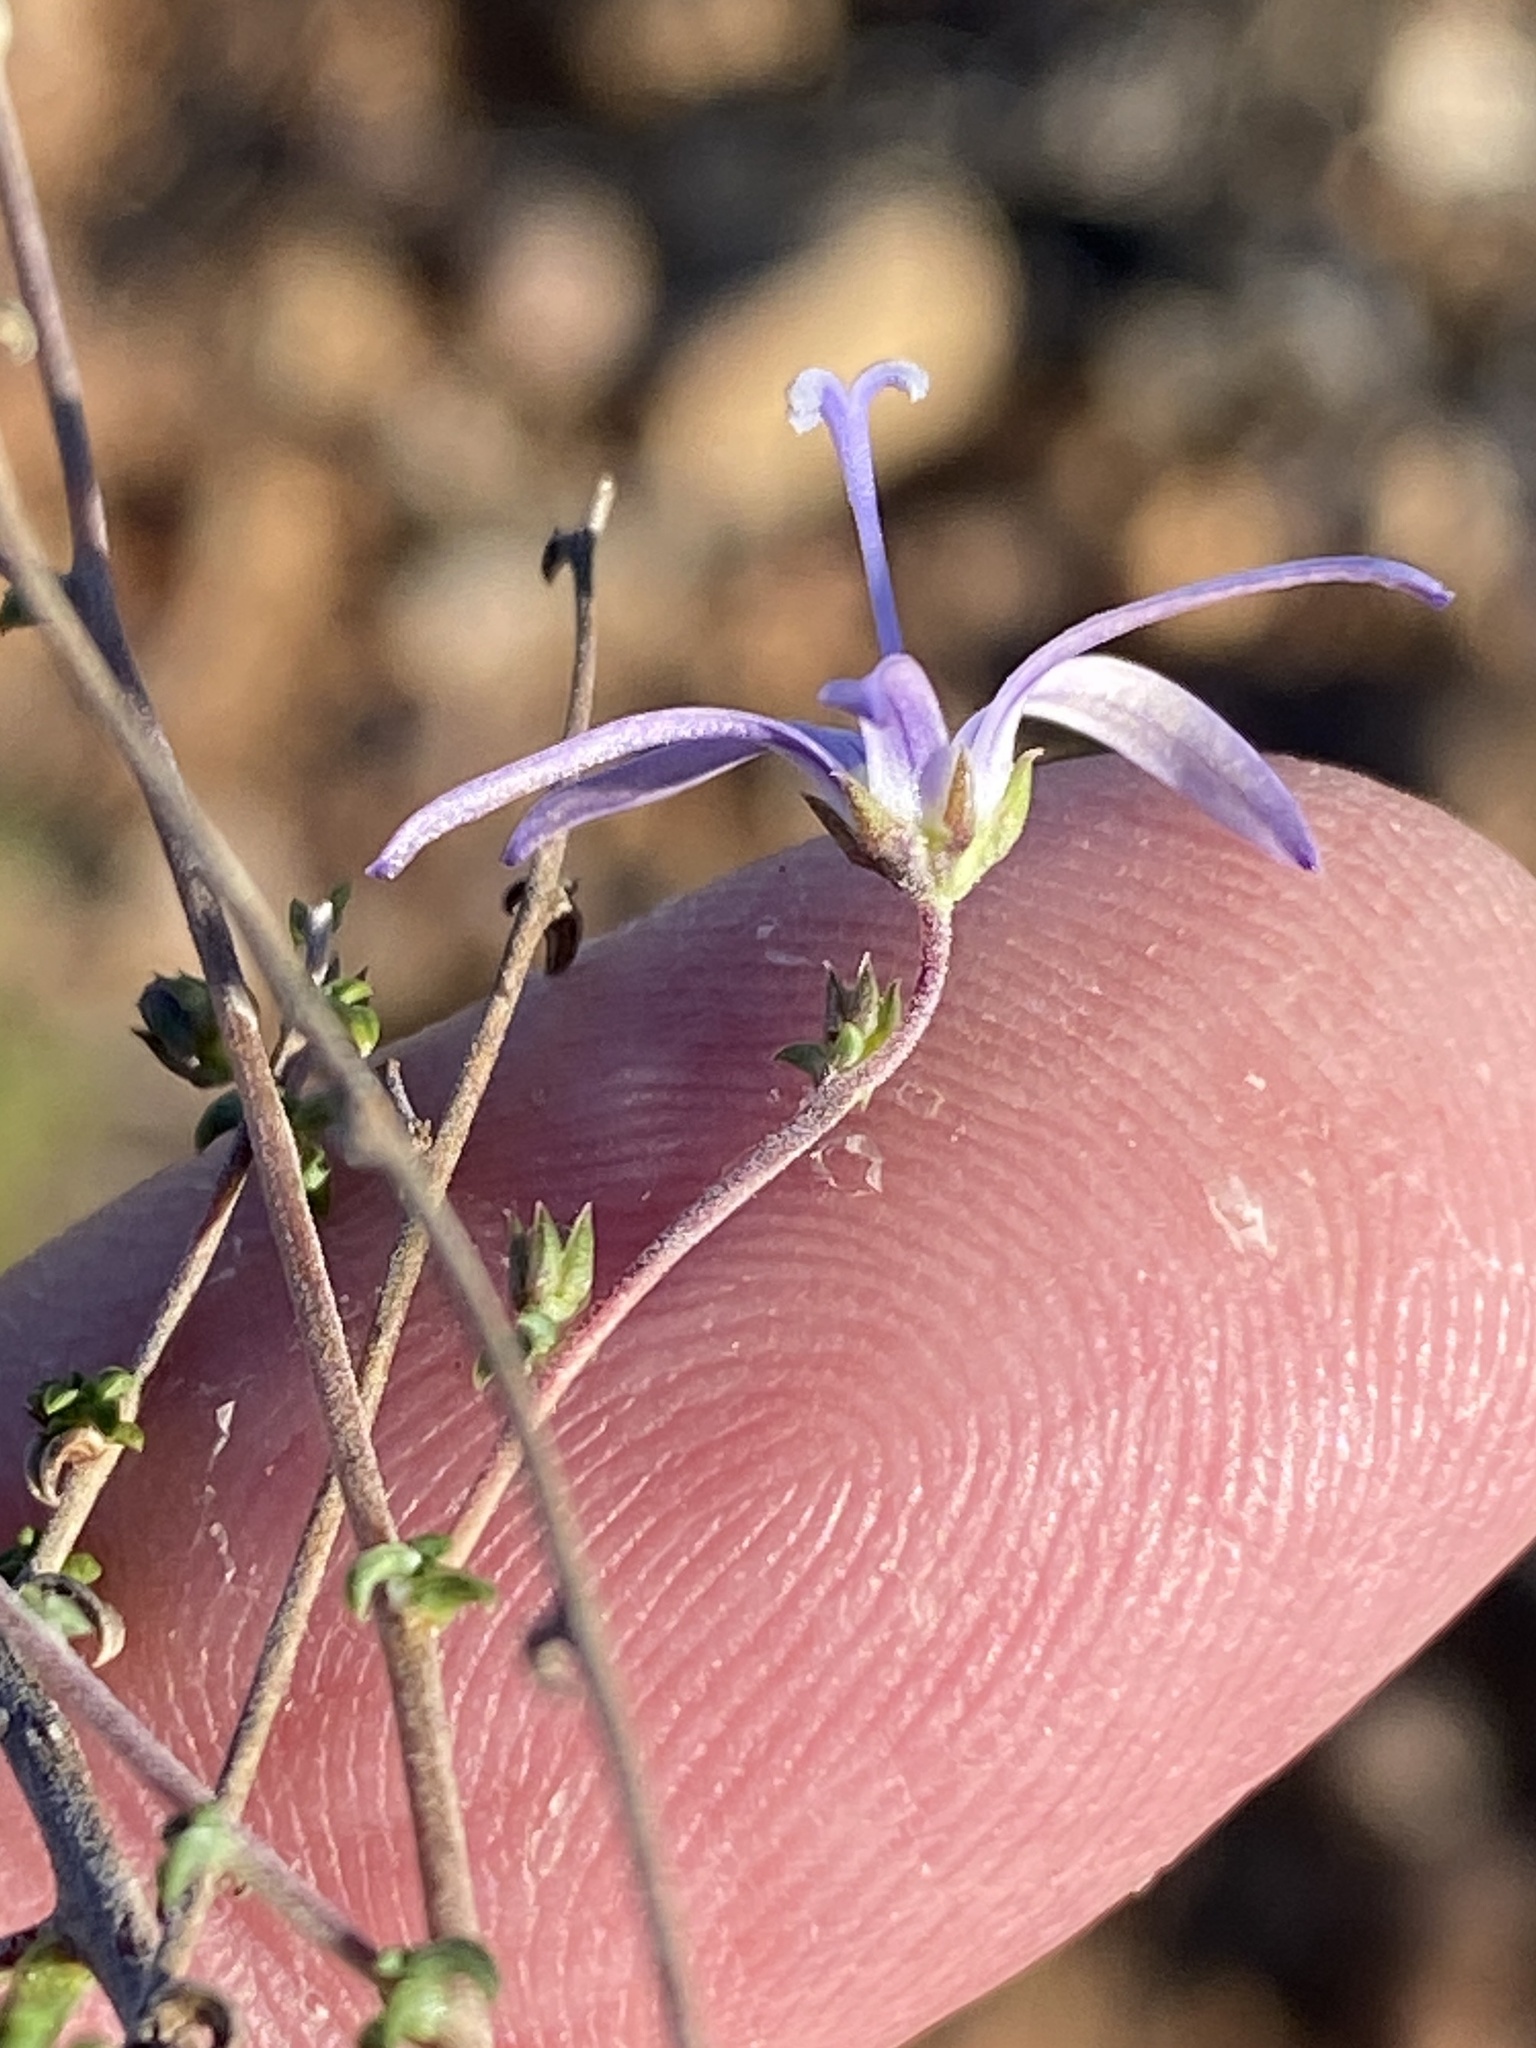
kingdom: Plantae
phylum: Tracheophyta
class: Magnoliopsida
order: Asterales
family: Campanulaceae
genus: Wahlenbergia
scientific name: Wahlenbergia loddigesii
